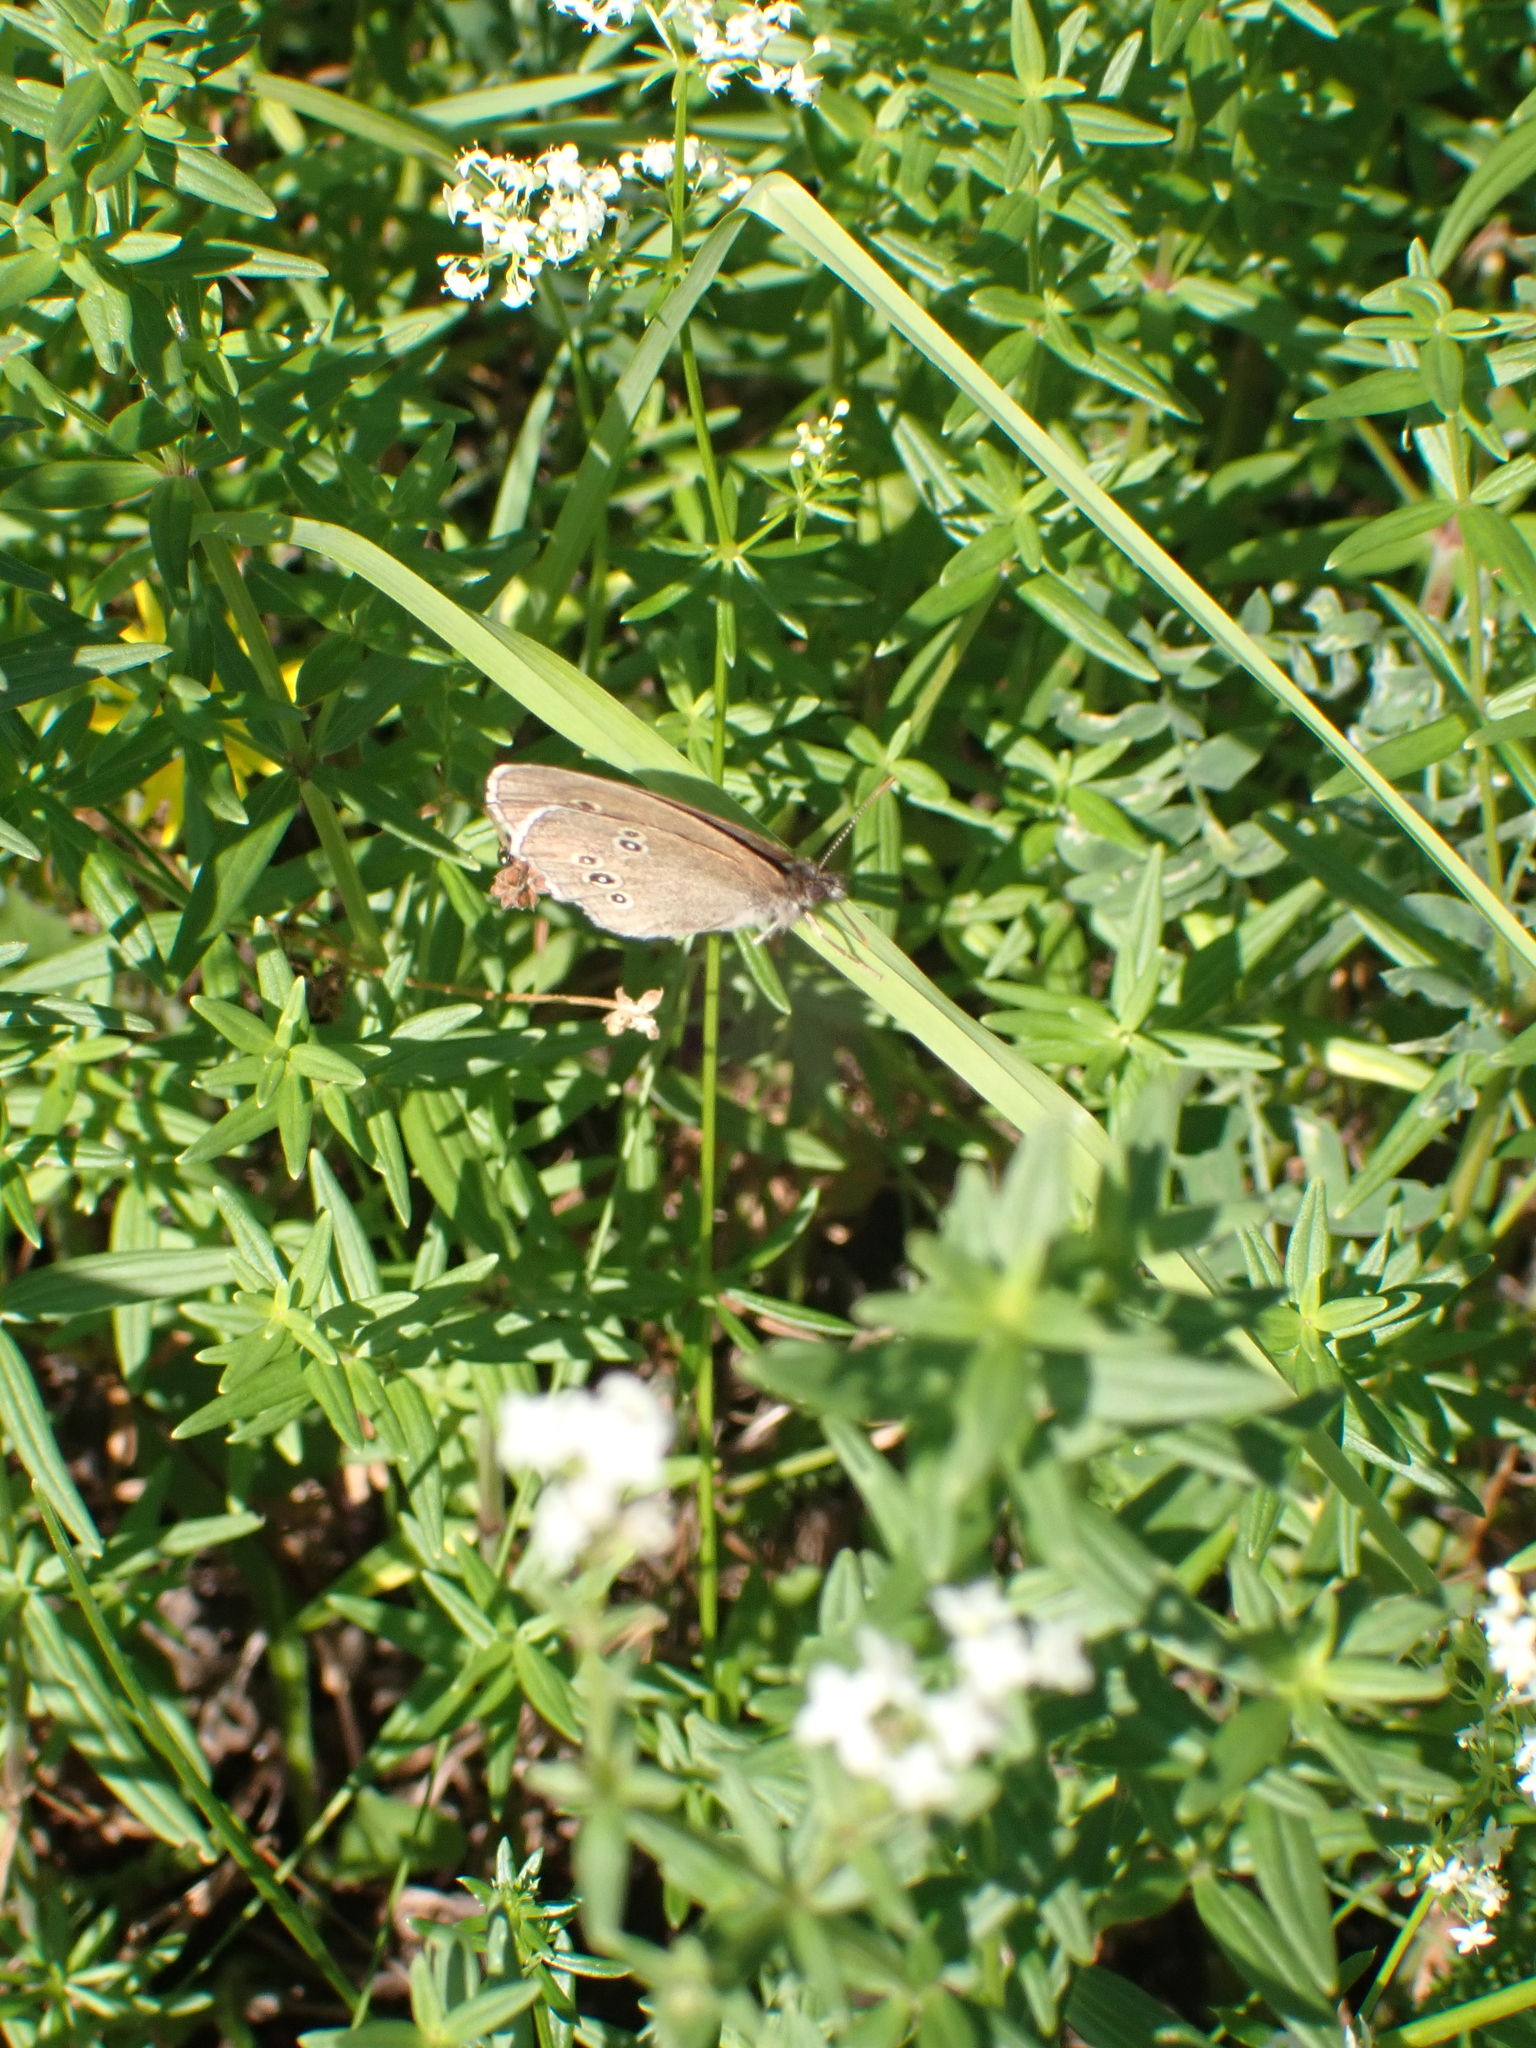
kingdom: Animalia
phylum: Arthropoda
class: Insecta
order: Lepidoptera
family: Nymphalidae
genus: Aphantopus
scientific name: Aphantopus hyperantus
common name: Ringlet
